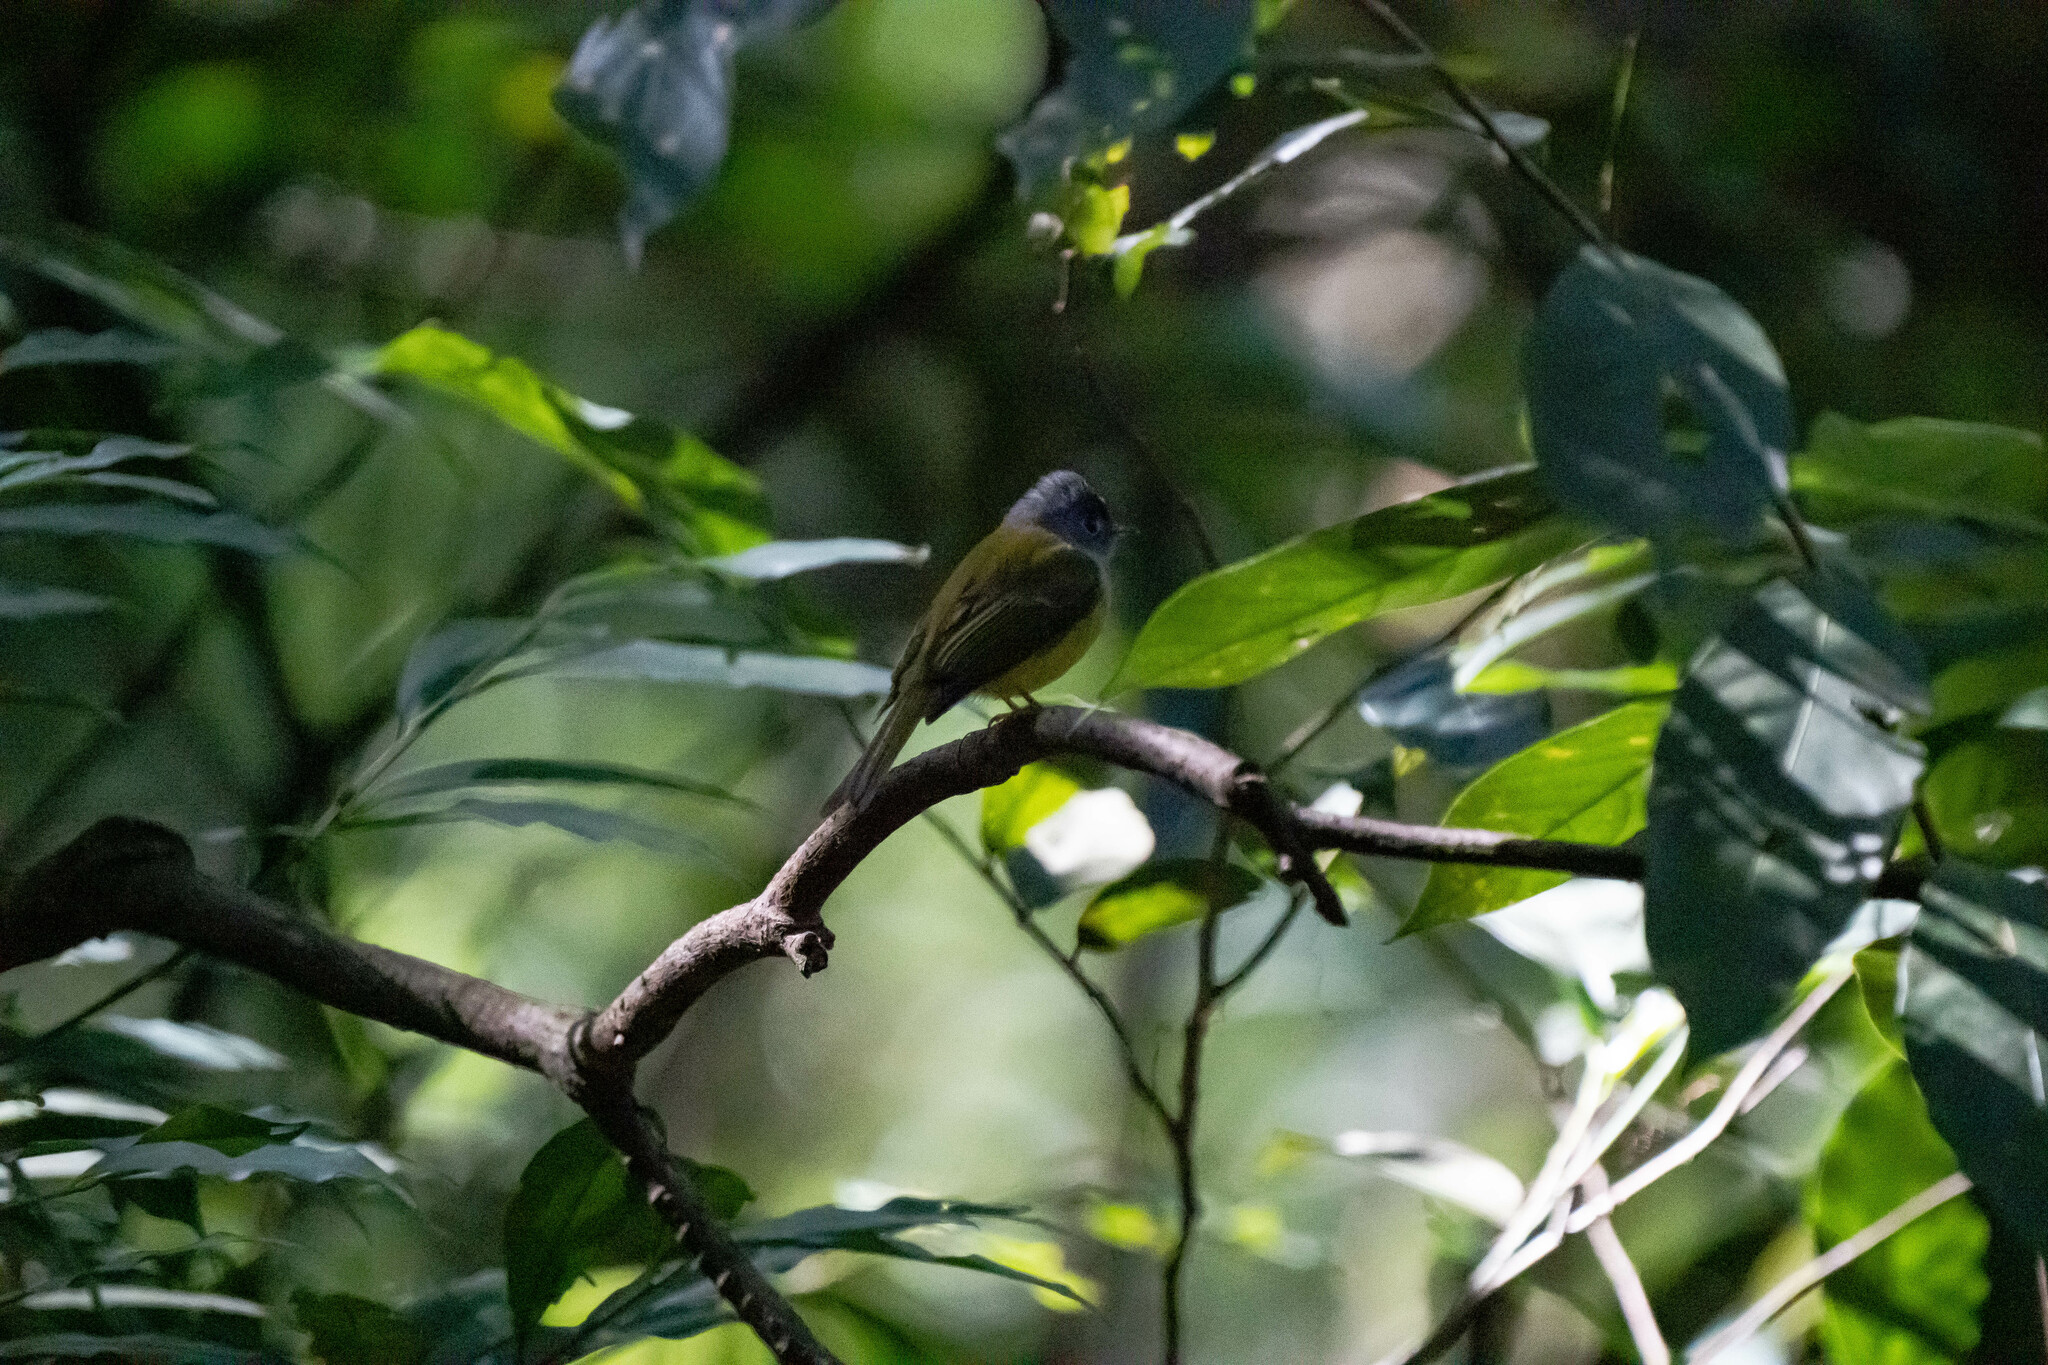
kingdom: Animalia
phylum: Chordata
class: Aves
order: Passeriformes
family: Stenostiridae
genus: Culicicapa
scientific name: Culicicapa ceylonensis
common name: Grey-headed canary-flycatcher
